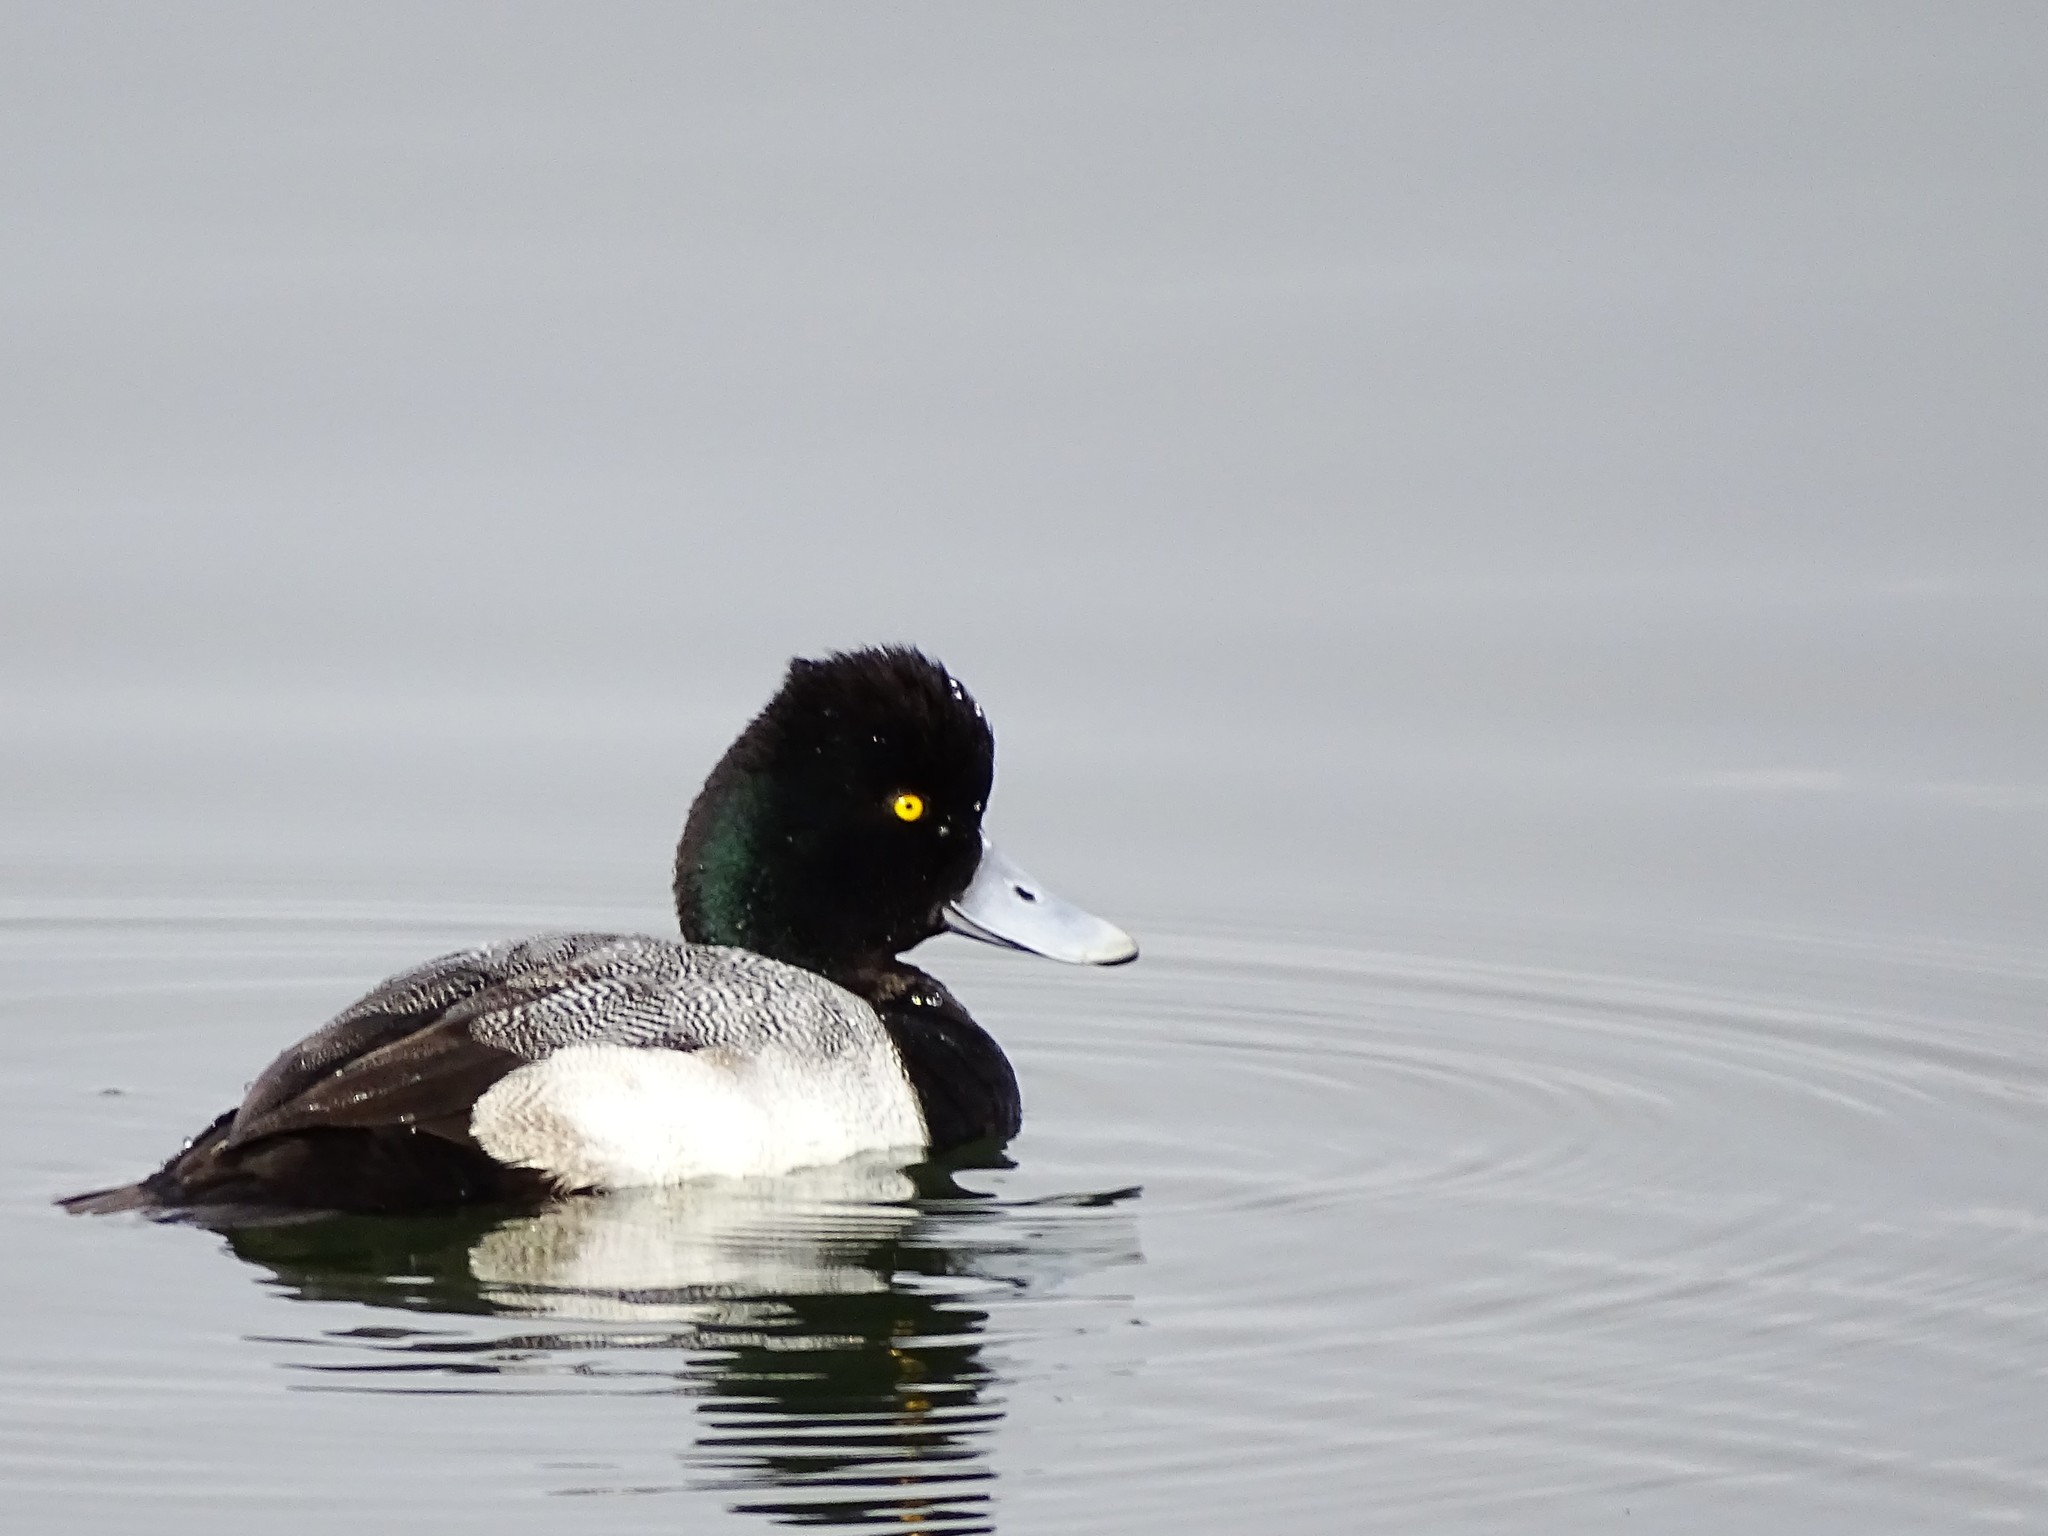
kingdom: Animalia
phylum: Chordata
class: Aves
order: Anseriformes
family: Anatidae
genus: Aythya
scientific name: Aythya affinis
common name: Lesser scaup
